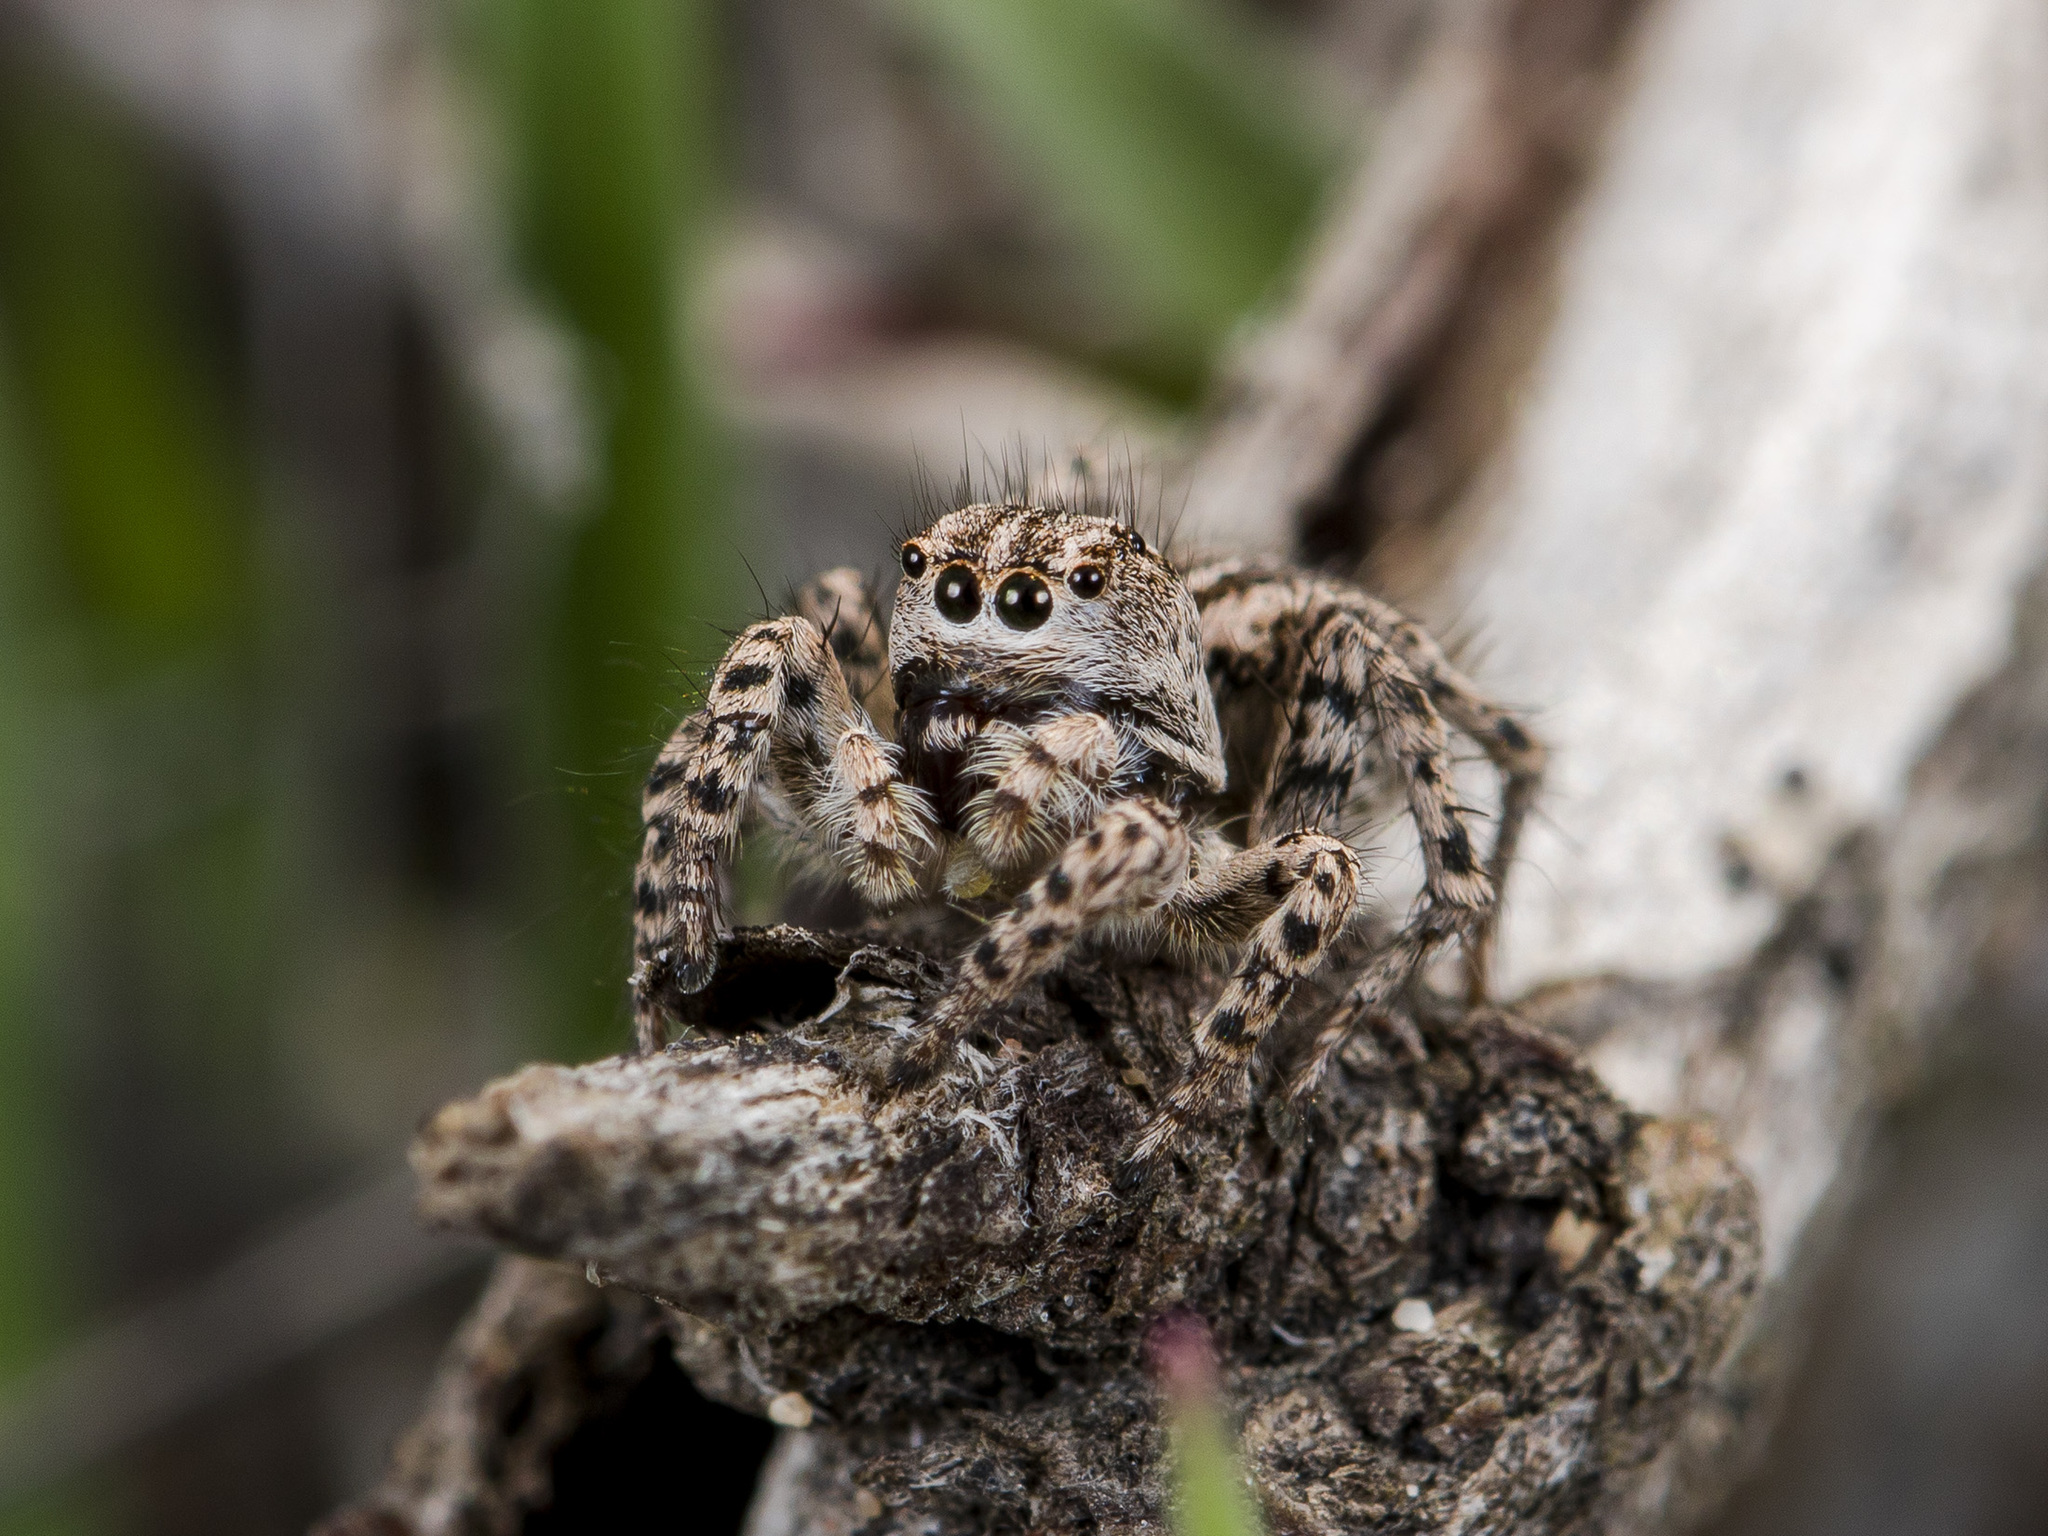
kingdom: Animalia
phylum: Arthropoda
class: Arachnida
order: Araneae
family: Salticidae
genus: Aelurillus
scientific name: Aelurillus m-nigrum
